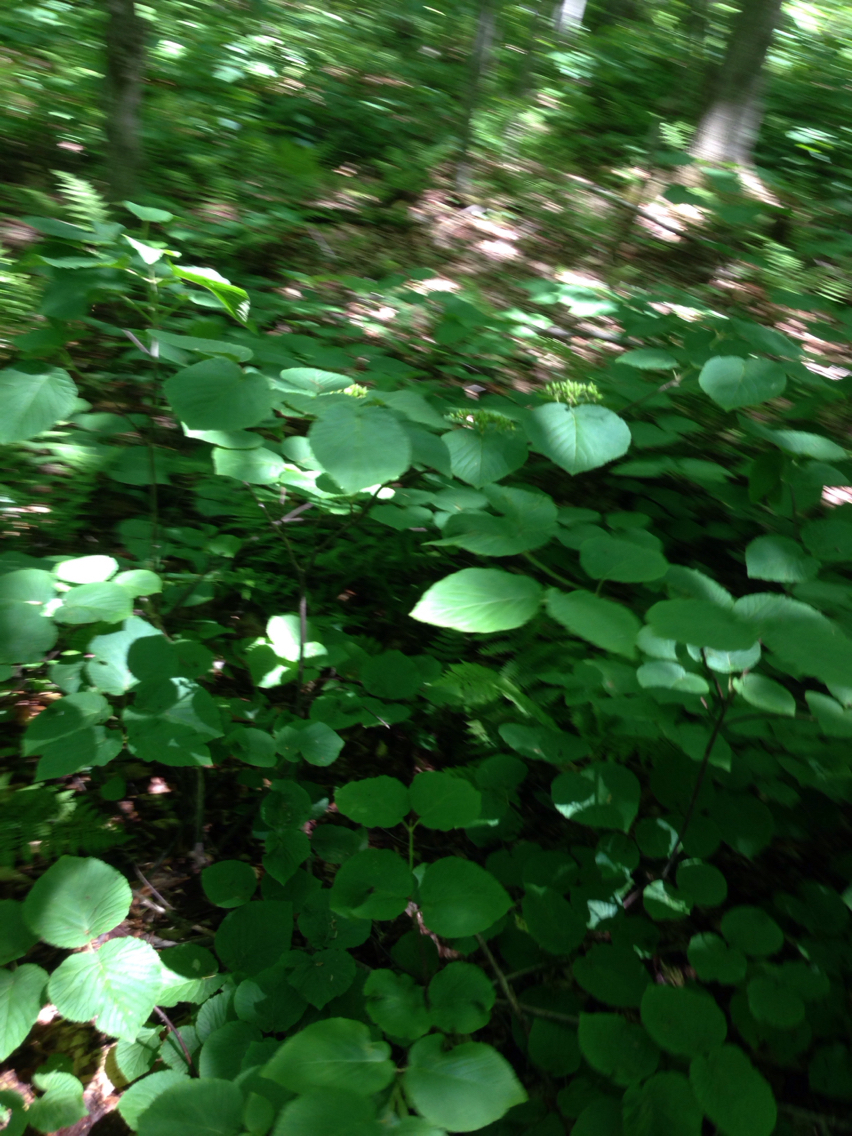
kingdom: Plantae
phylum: Tracheophyta
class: Magnoliopsida
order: Dipsacales
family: Viburnaceae
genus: Viburnum
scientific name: Viburnum lantanoides
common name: Hobblebush
